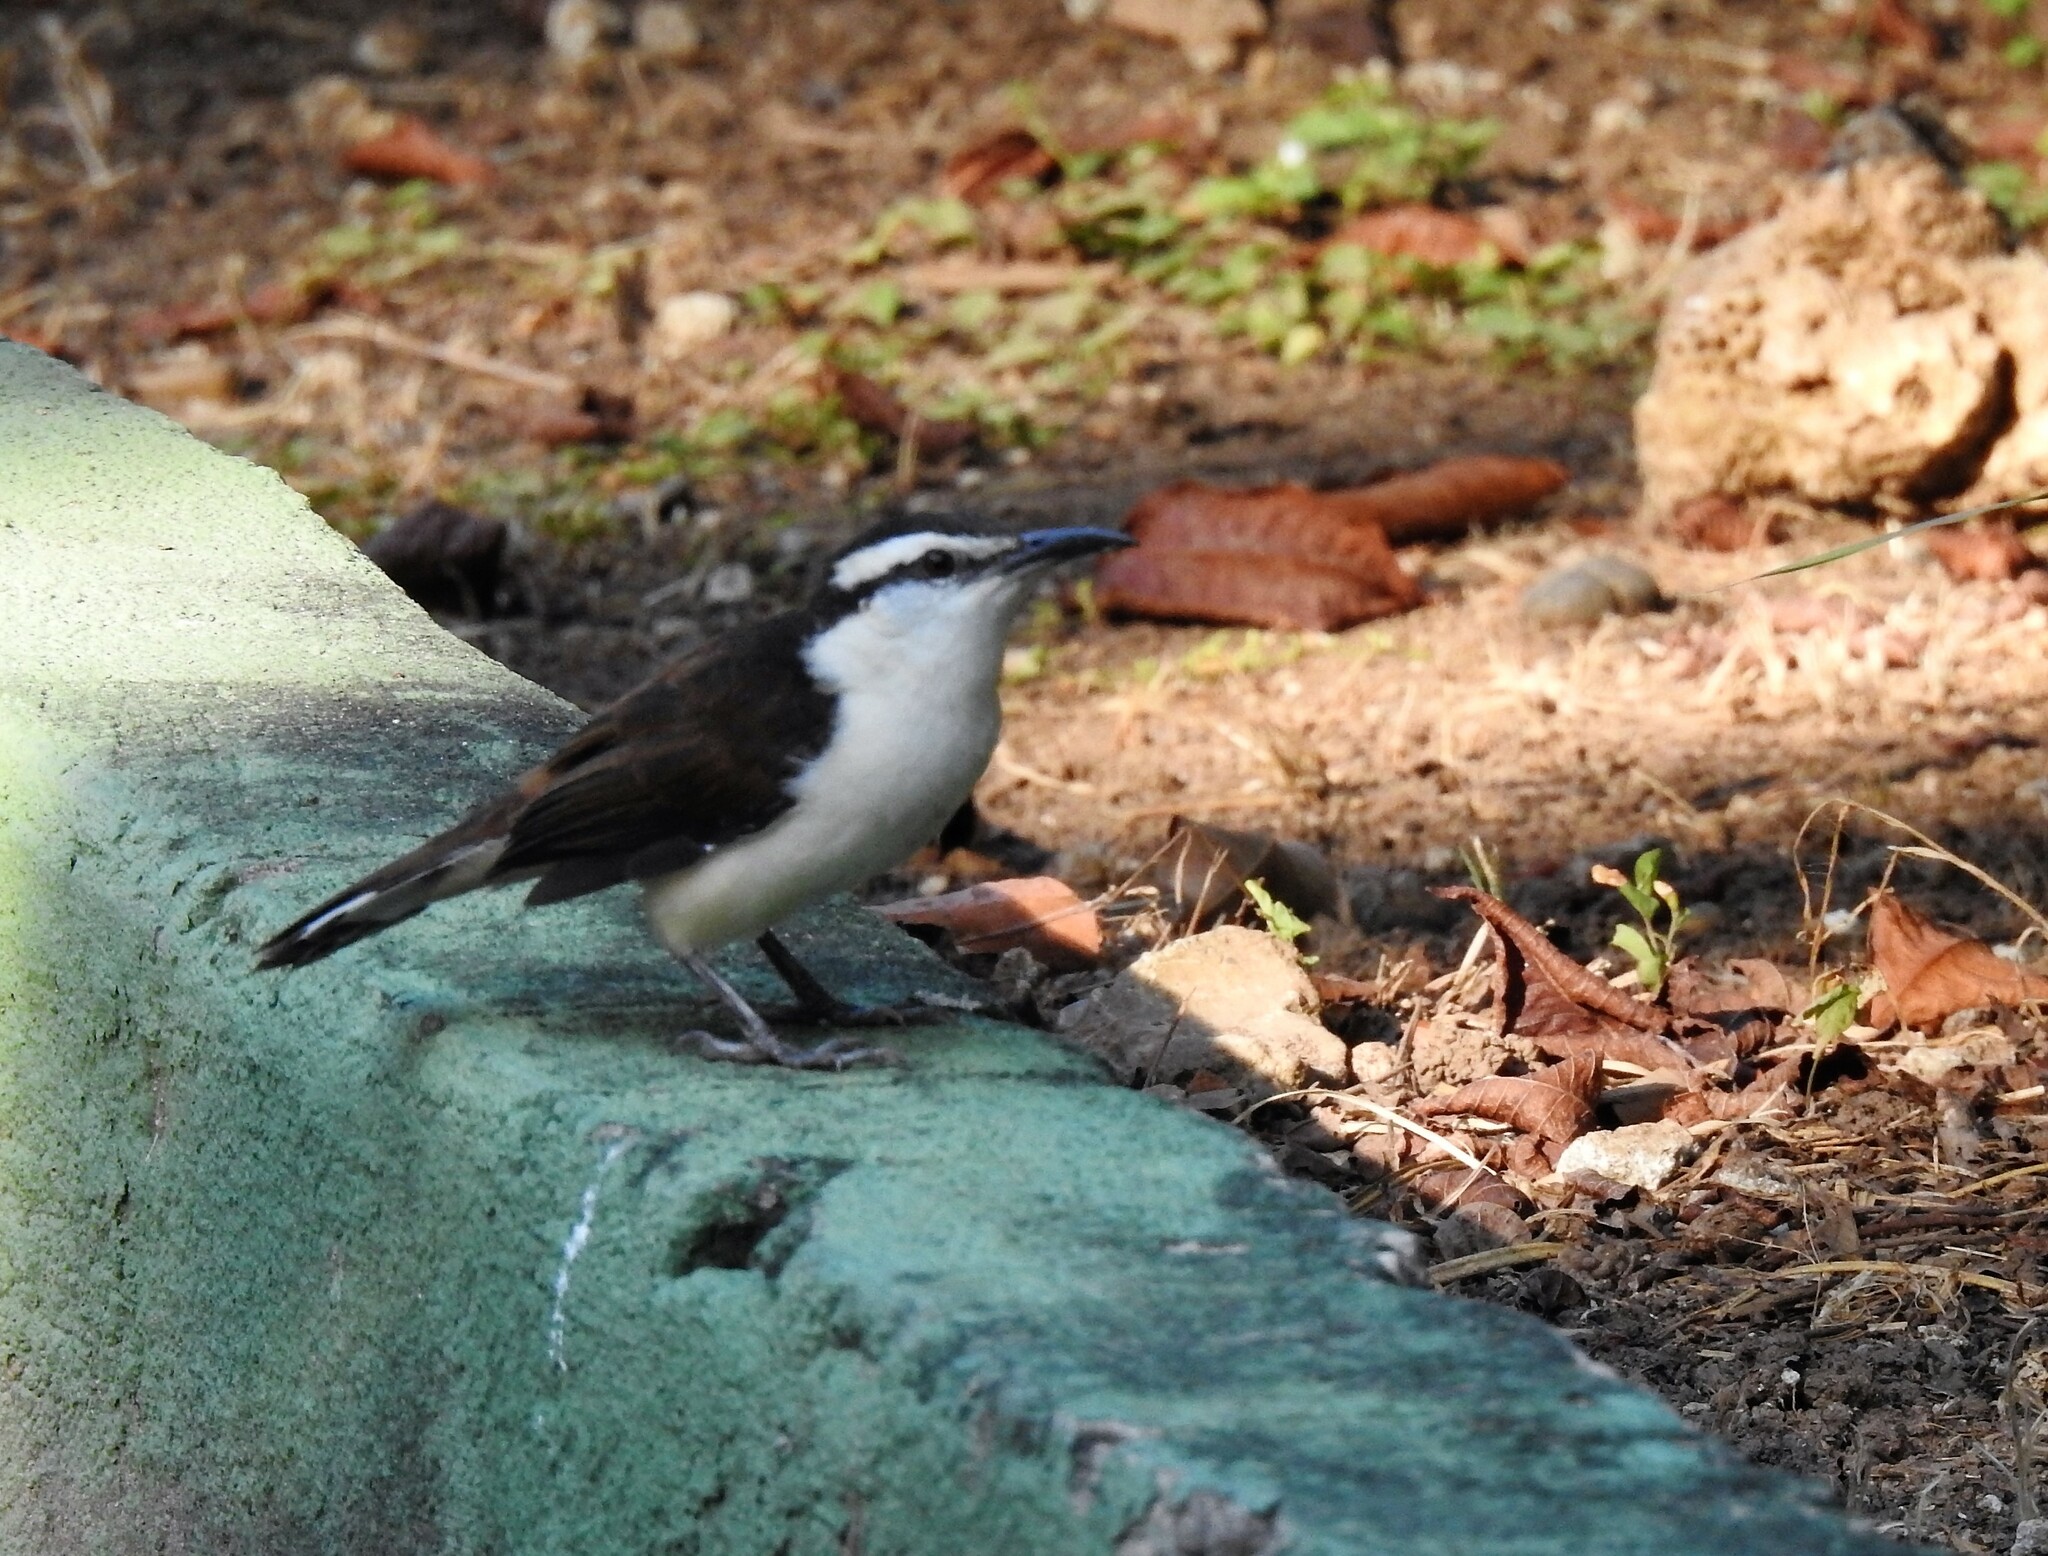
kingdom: Animalia
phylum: Chordata
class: Aves
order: Passeriformes
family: Troglodytidae
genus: Campylorhynchus
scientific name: Campylorhynchus griseus
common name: Bicolored wren
